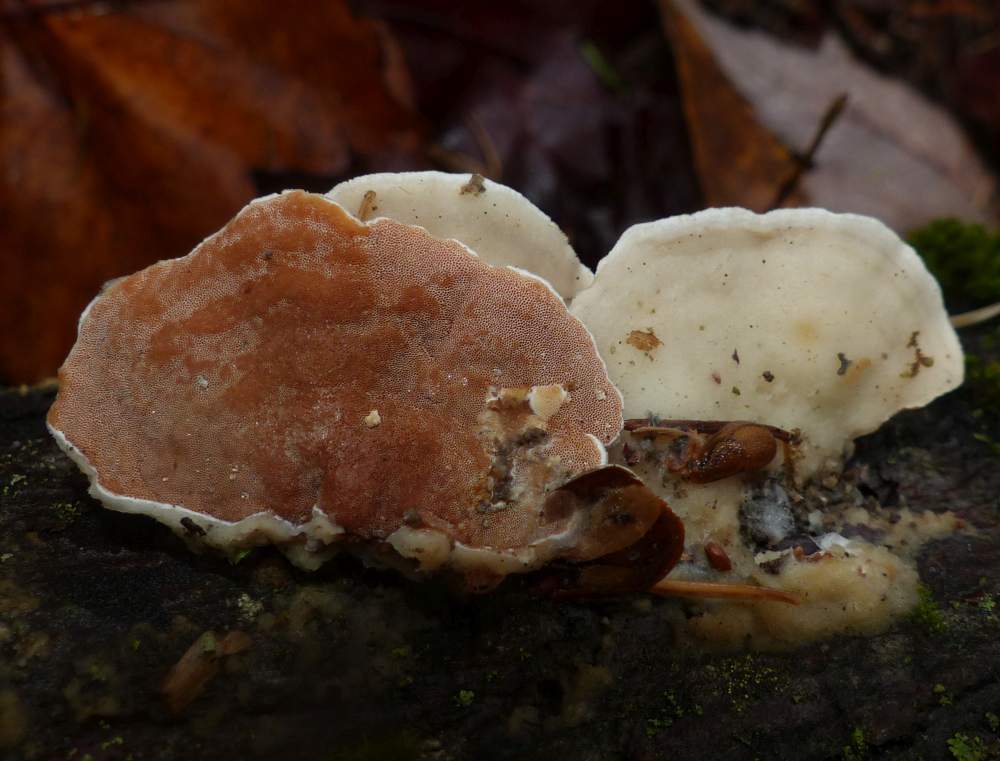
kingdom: Fungi
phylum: Basidiomycota
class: Agaricomycetes
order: Polyporales
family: Irpicaceae
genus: Vitreoporus
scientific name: Vitreoporus dichrous
